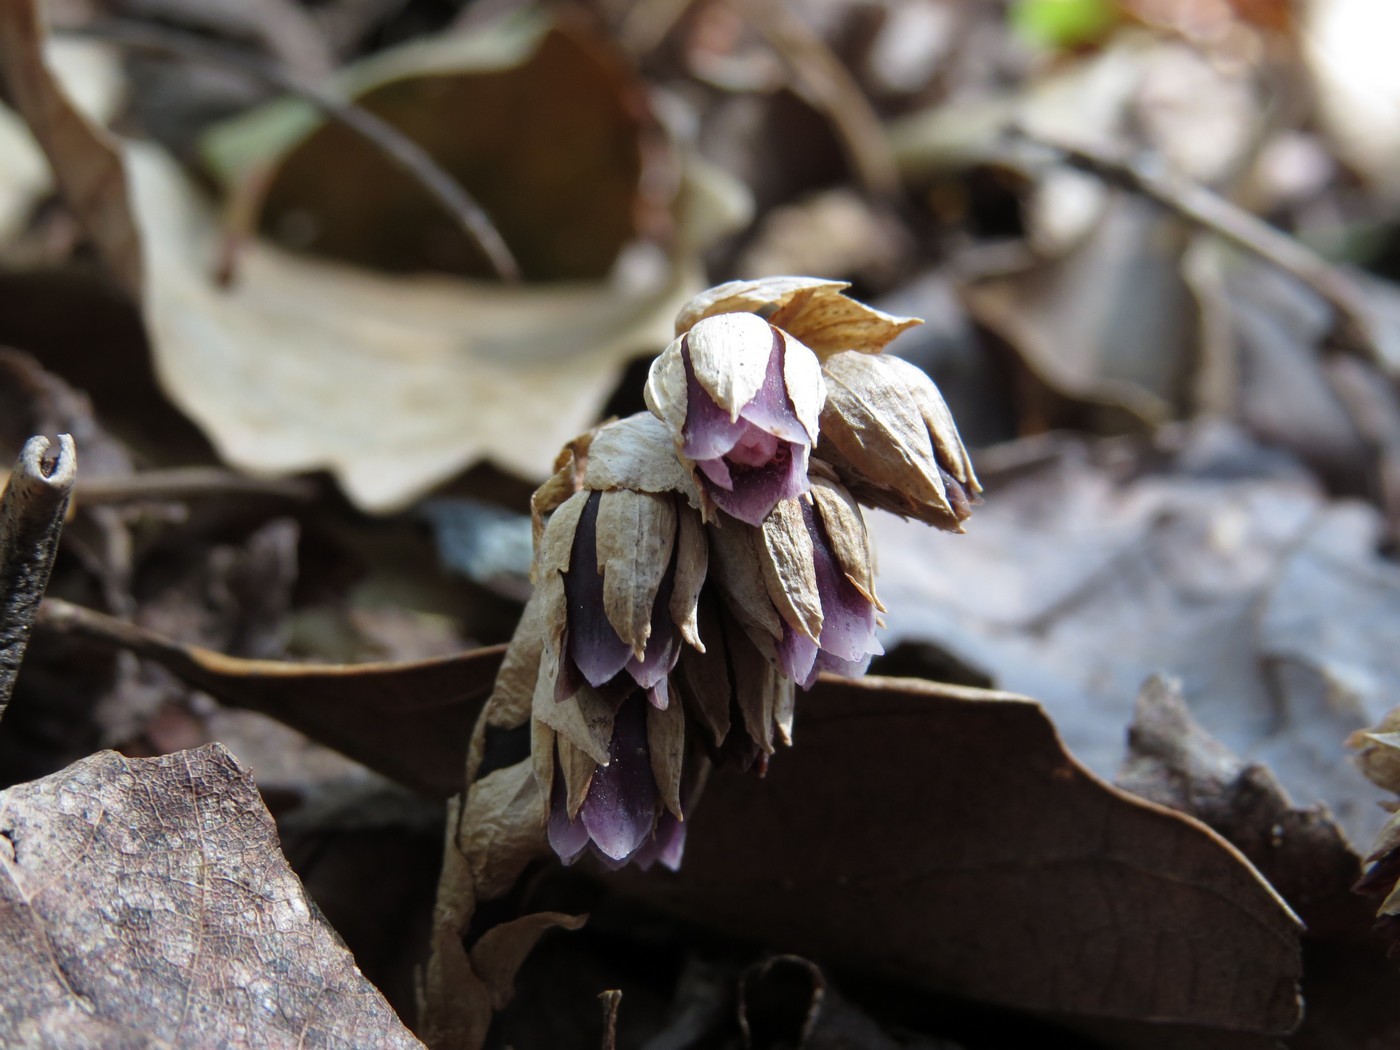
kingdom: Plantae
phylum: Tracheophyta
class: Magnoliopsida
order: Ericales
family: Ericaceae
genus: Monotropsis
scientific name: Monotropsis odorata
